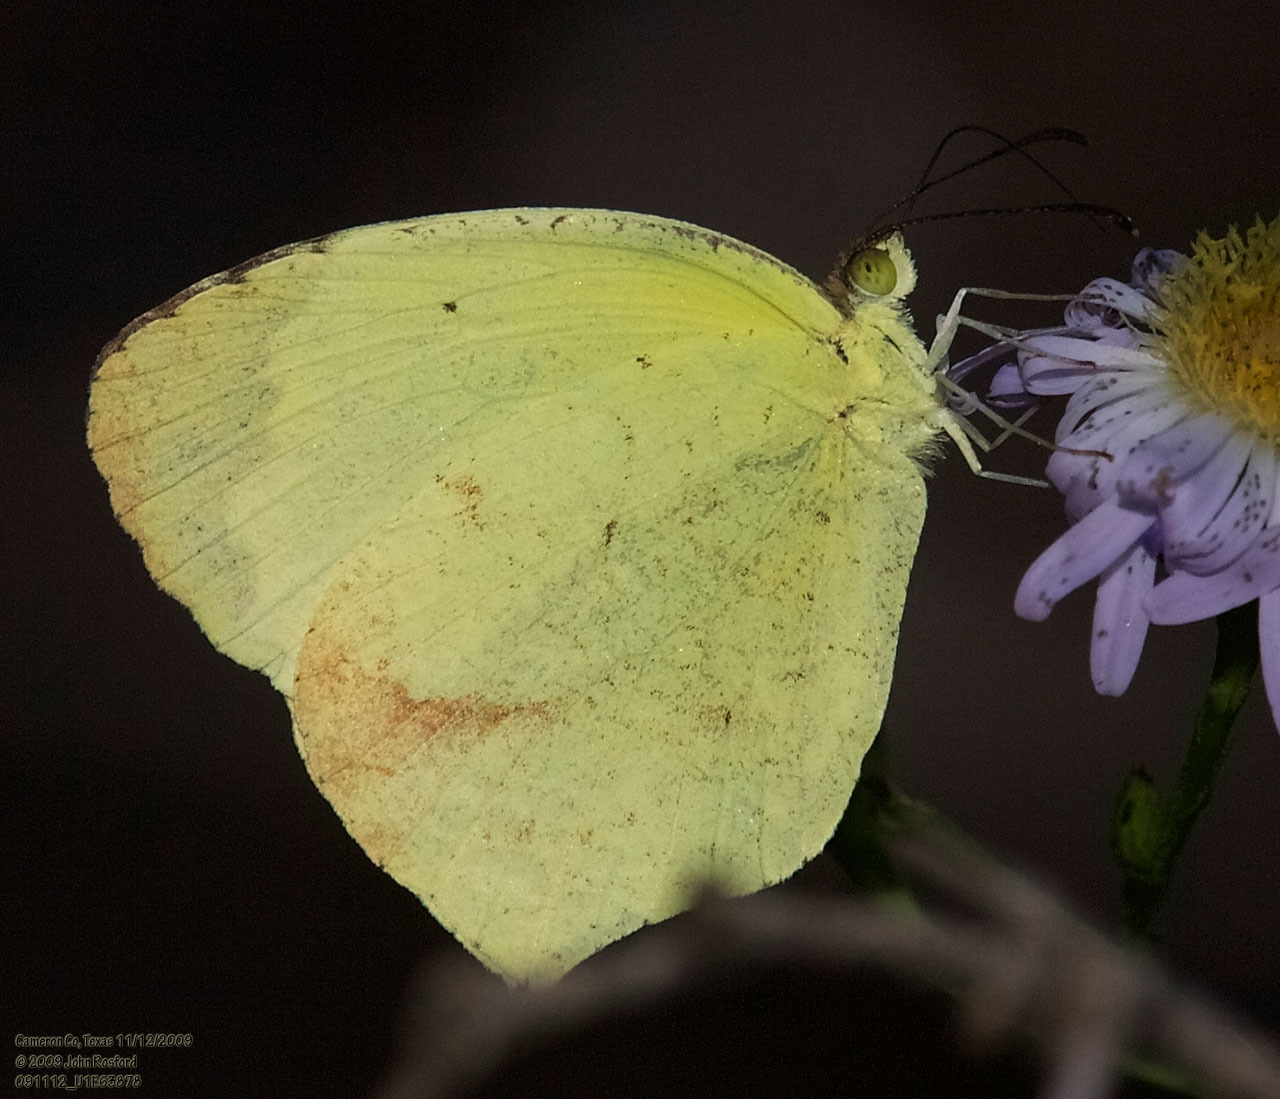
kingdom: Animalia
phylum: Arthropoda
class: Insecta
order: Lepidoptera
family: Pieridae
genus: Abaeis
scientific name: Abaeis boisduvaliana
